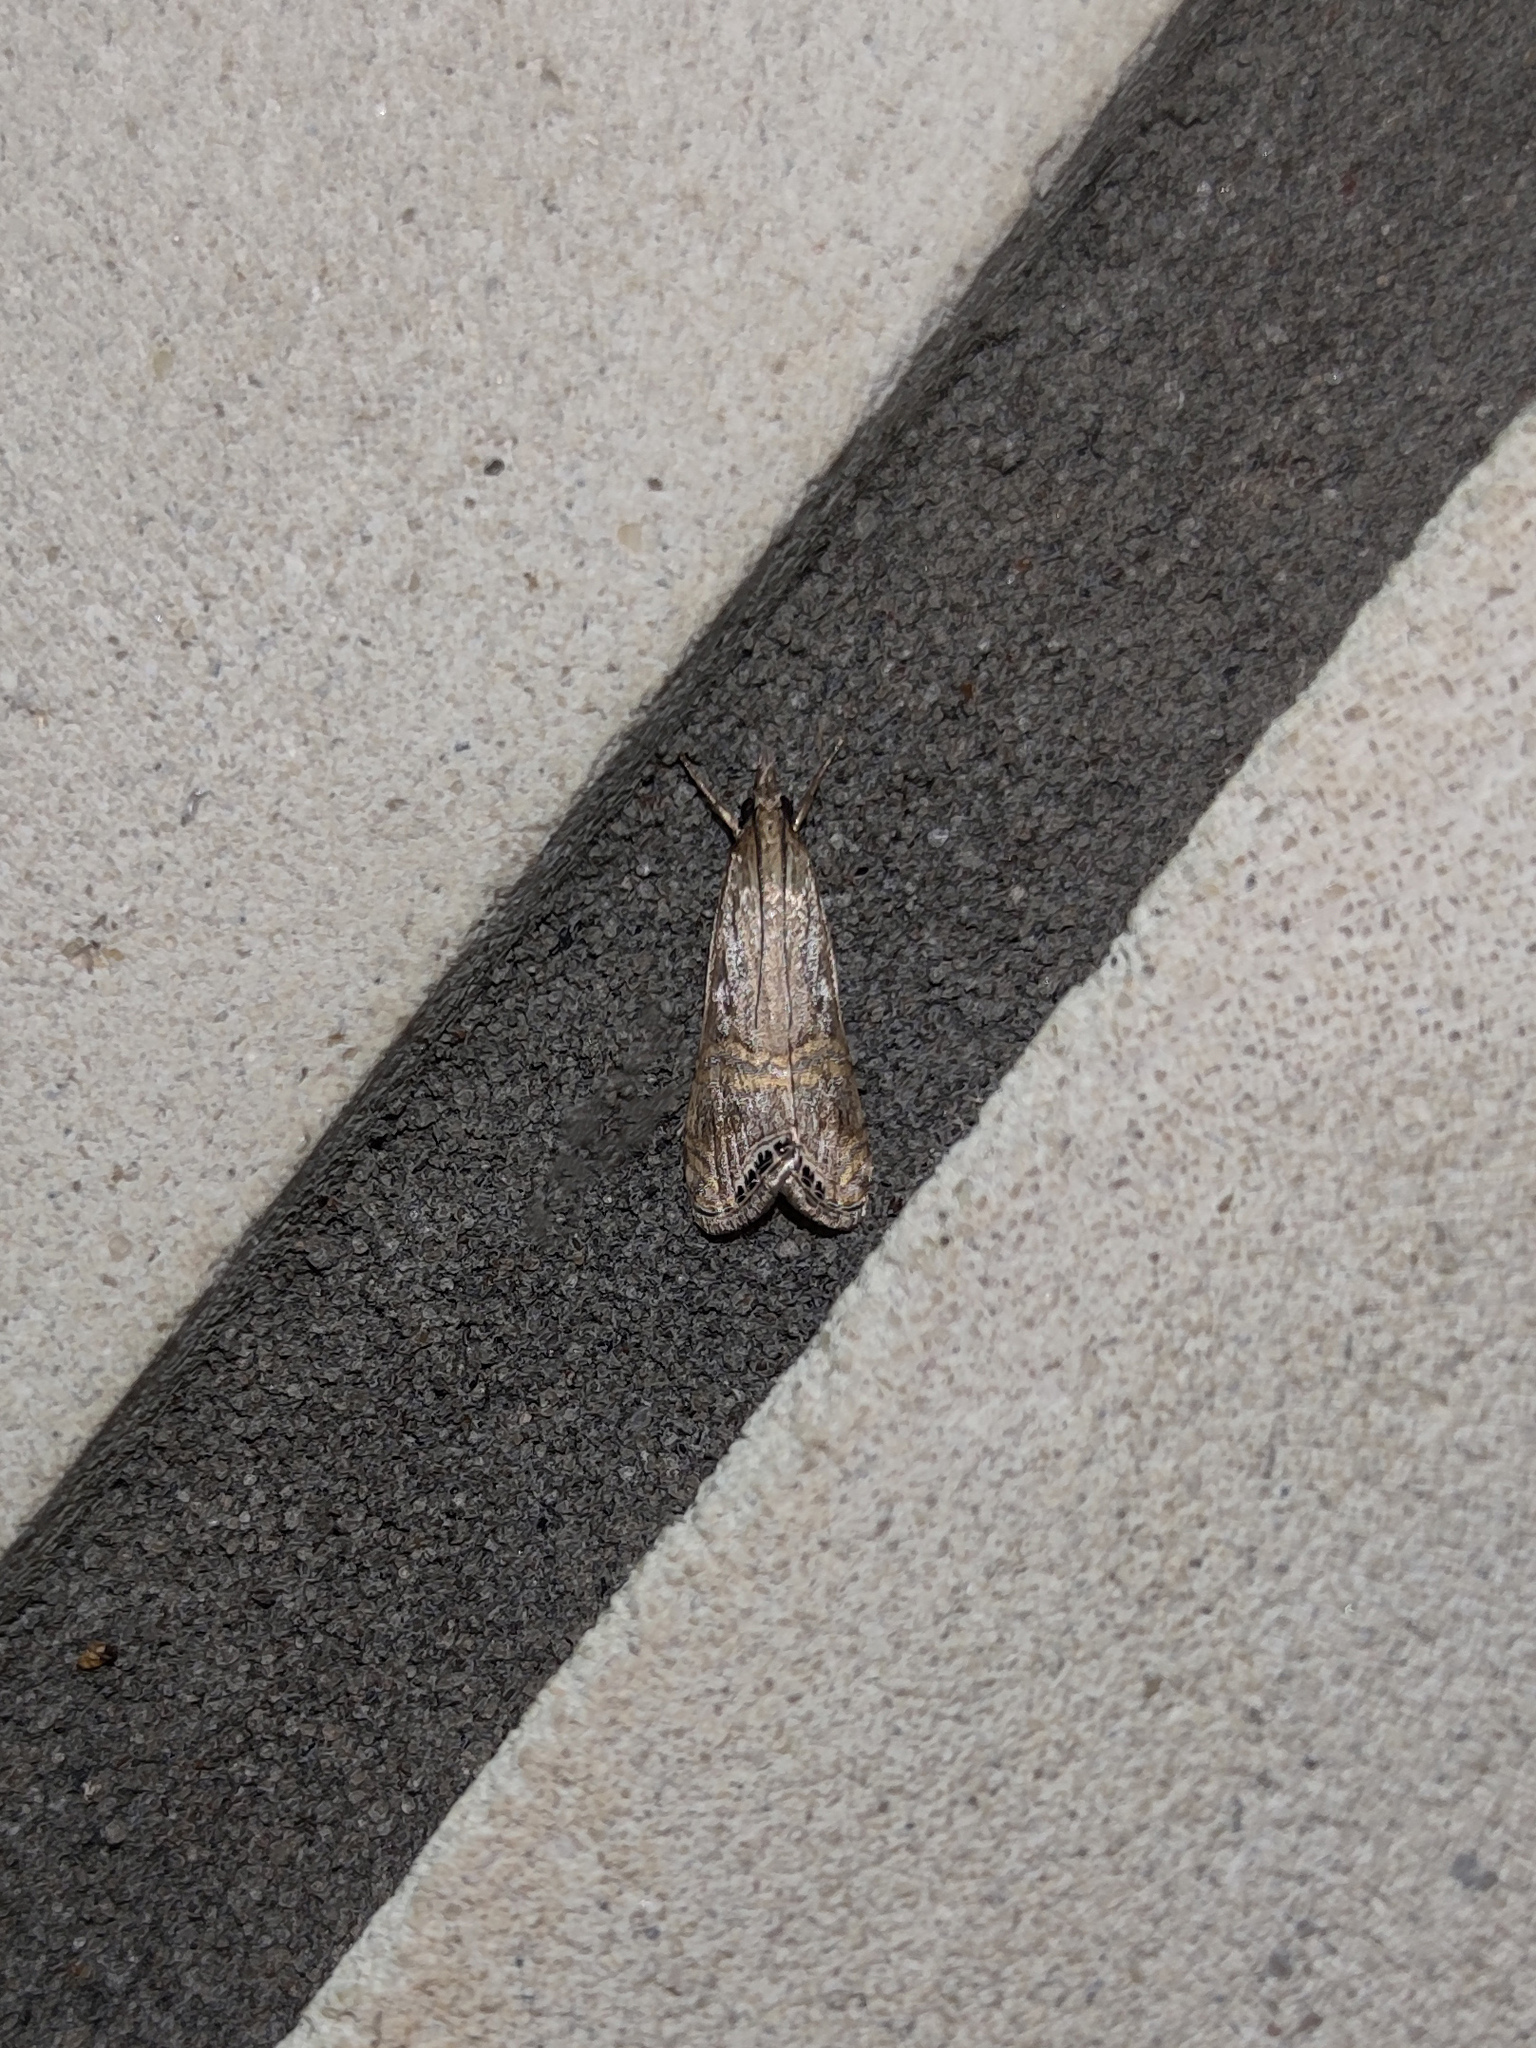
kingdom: Animalia
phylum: Arthropoda
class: Insecta
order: Lepidoptera
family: Crambidae
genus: Euchromius
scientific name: Euchromius ocellea
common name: Necklace veneer moth
